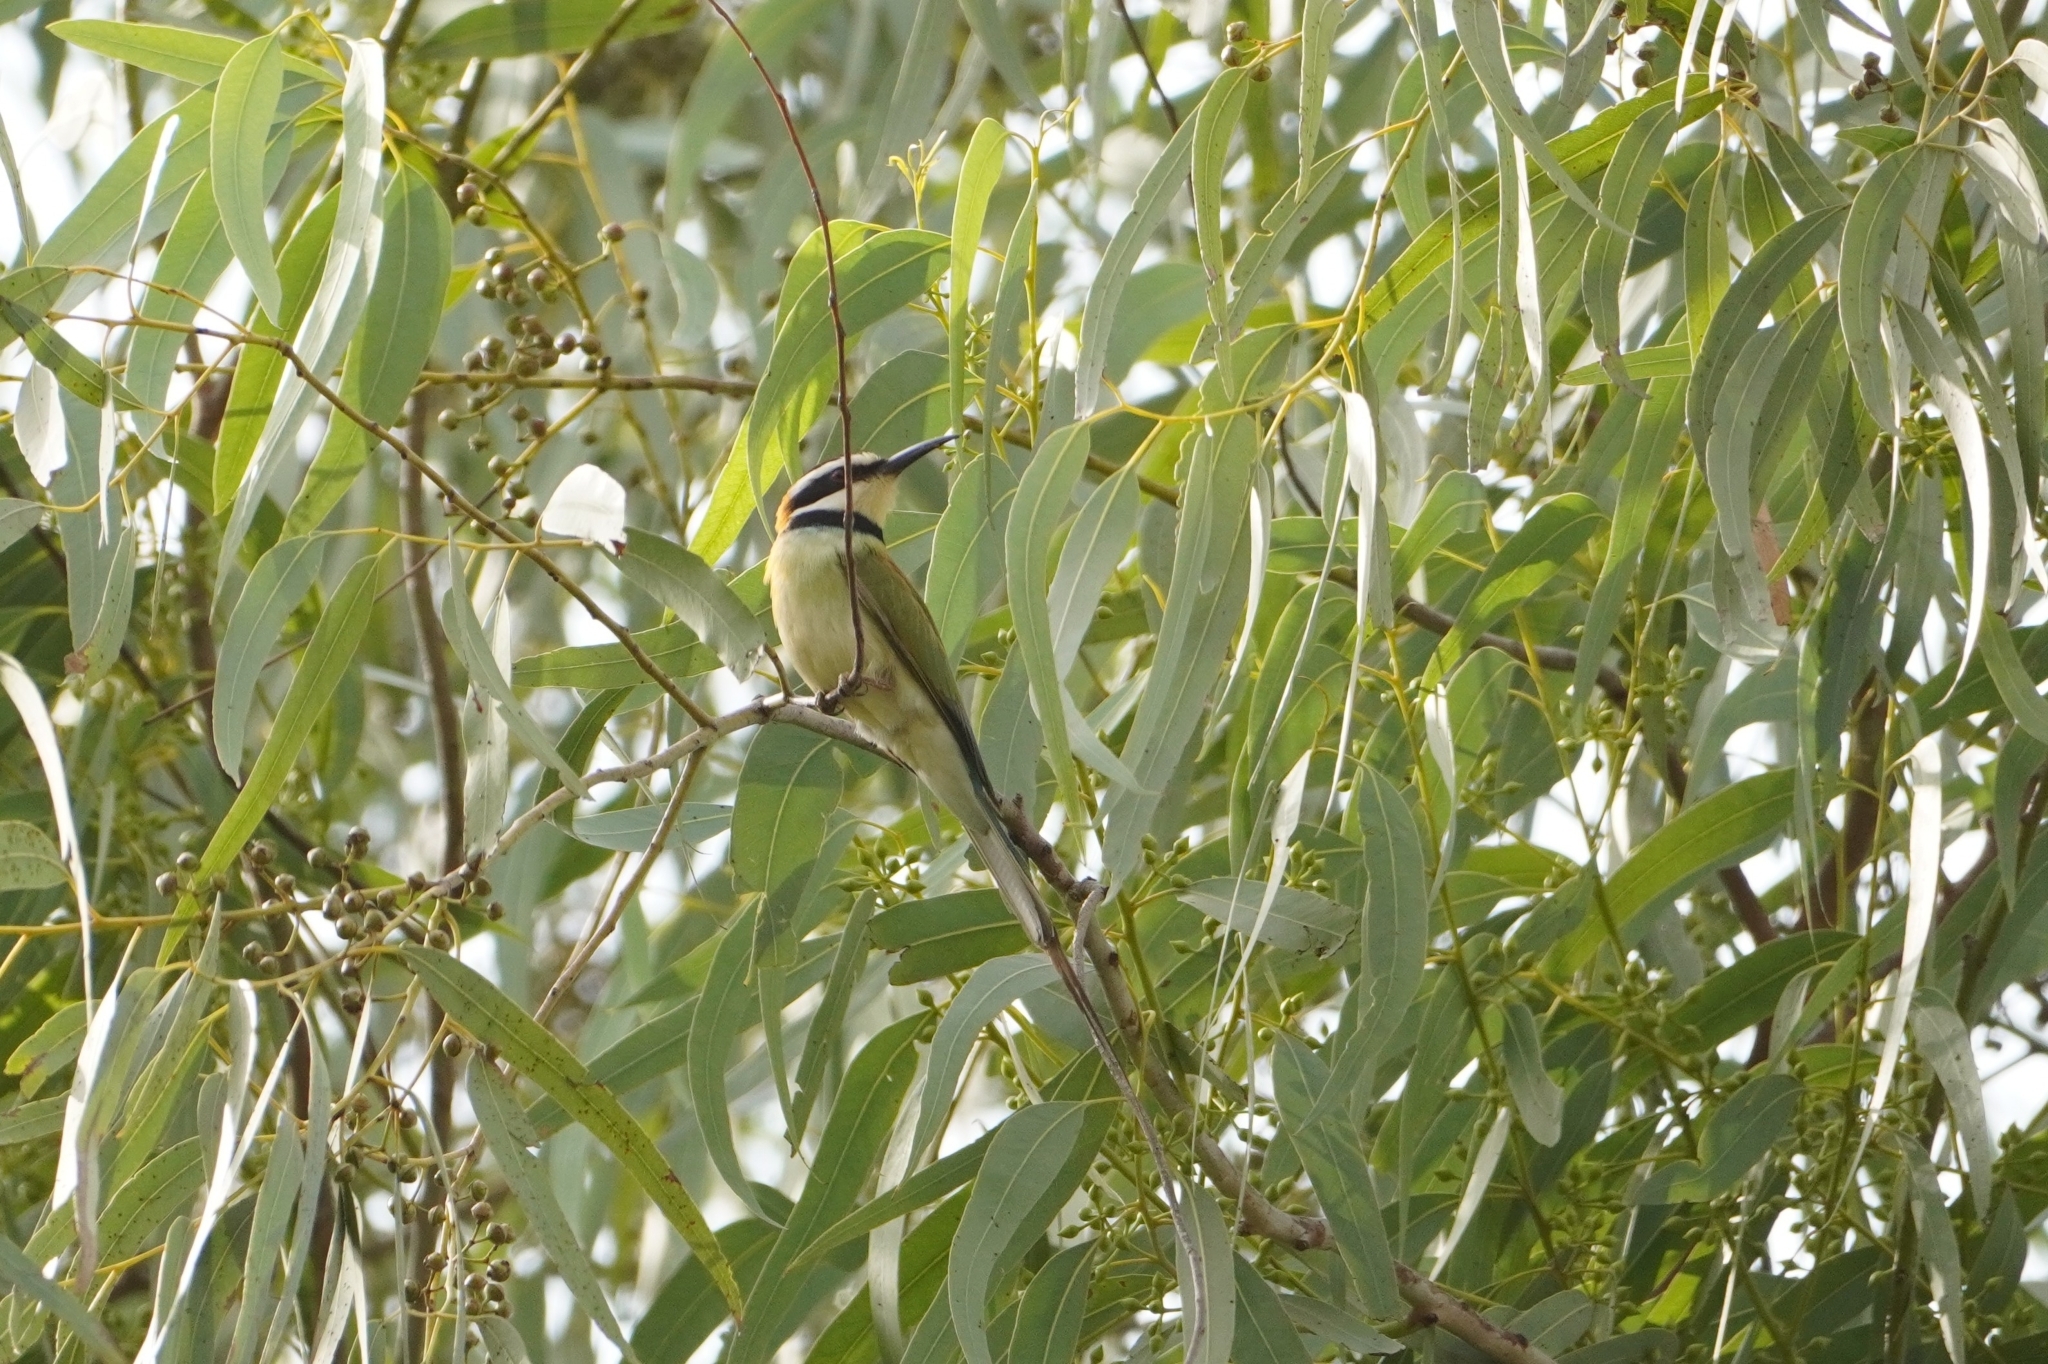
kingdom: Animalia
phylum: Chordata
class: Aves
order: Coraciiformes
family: Meropidae
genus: Merops
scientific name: Merops albicollis
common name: White-throated bee-eater
